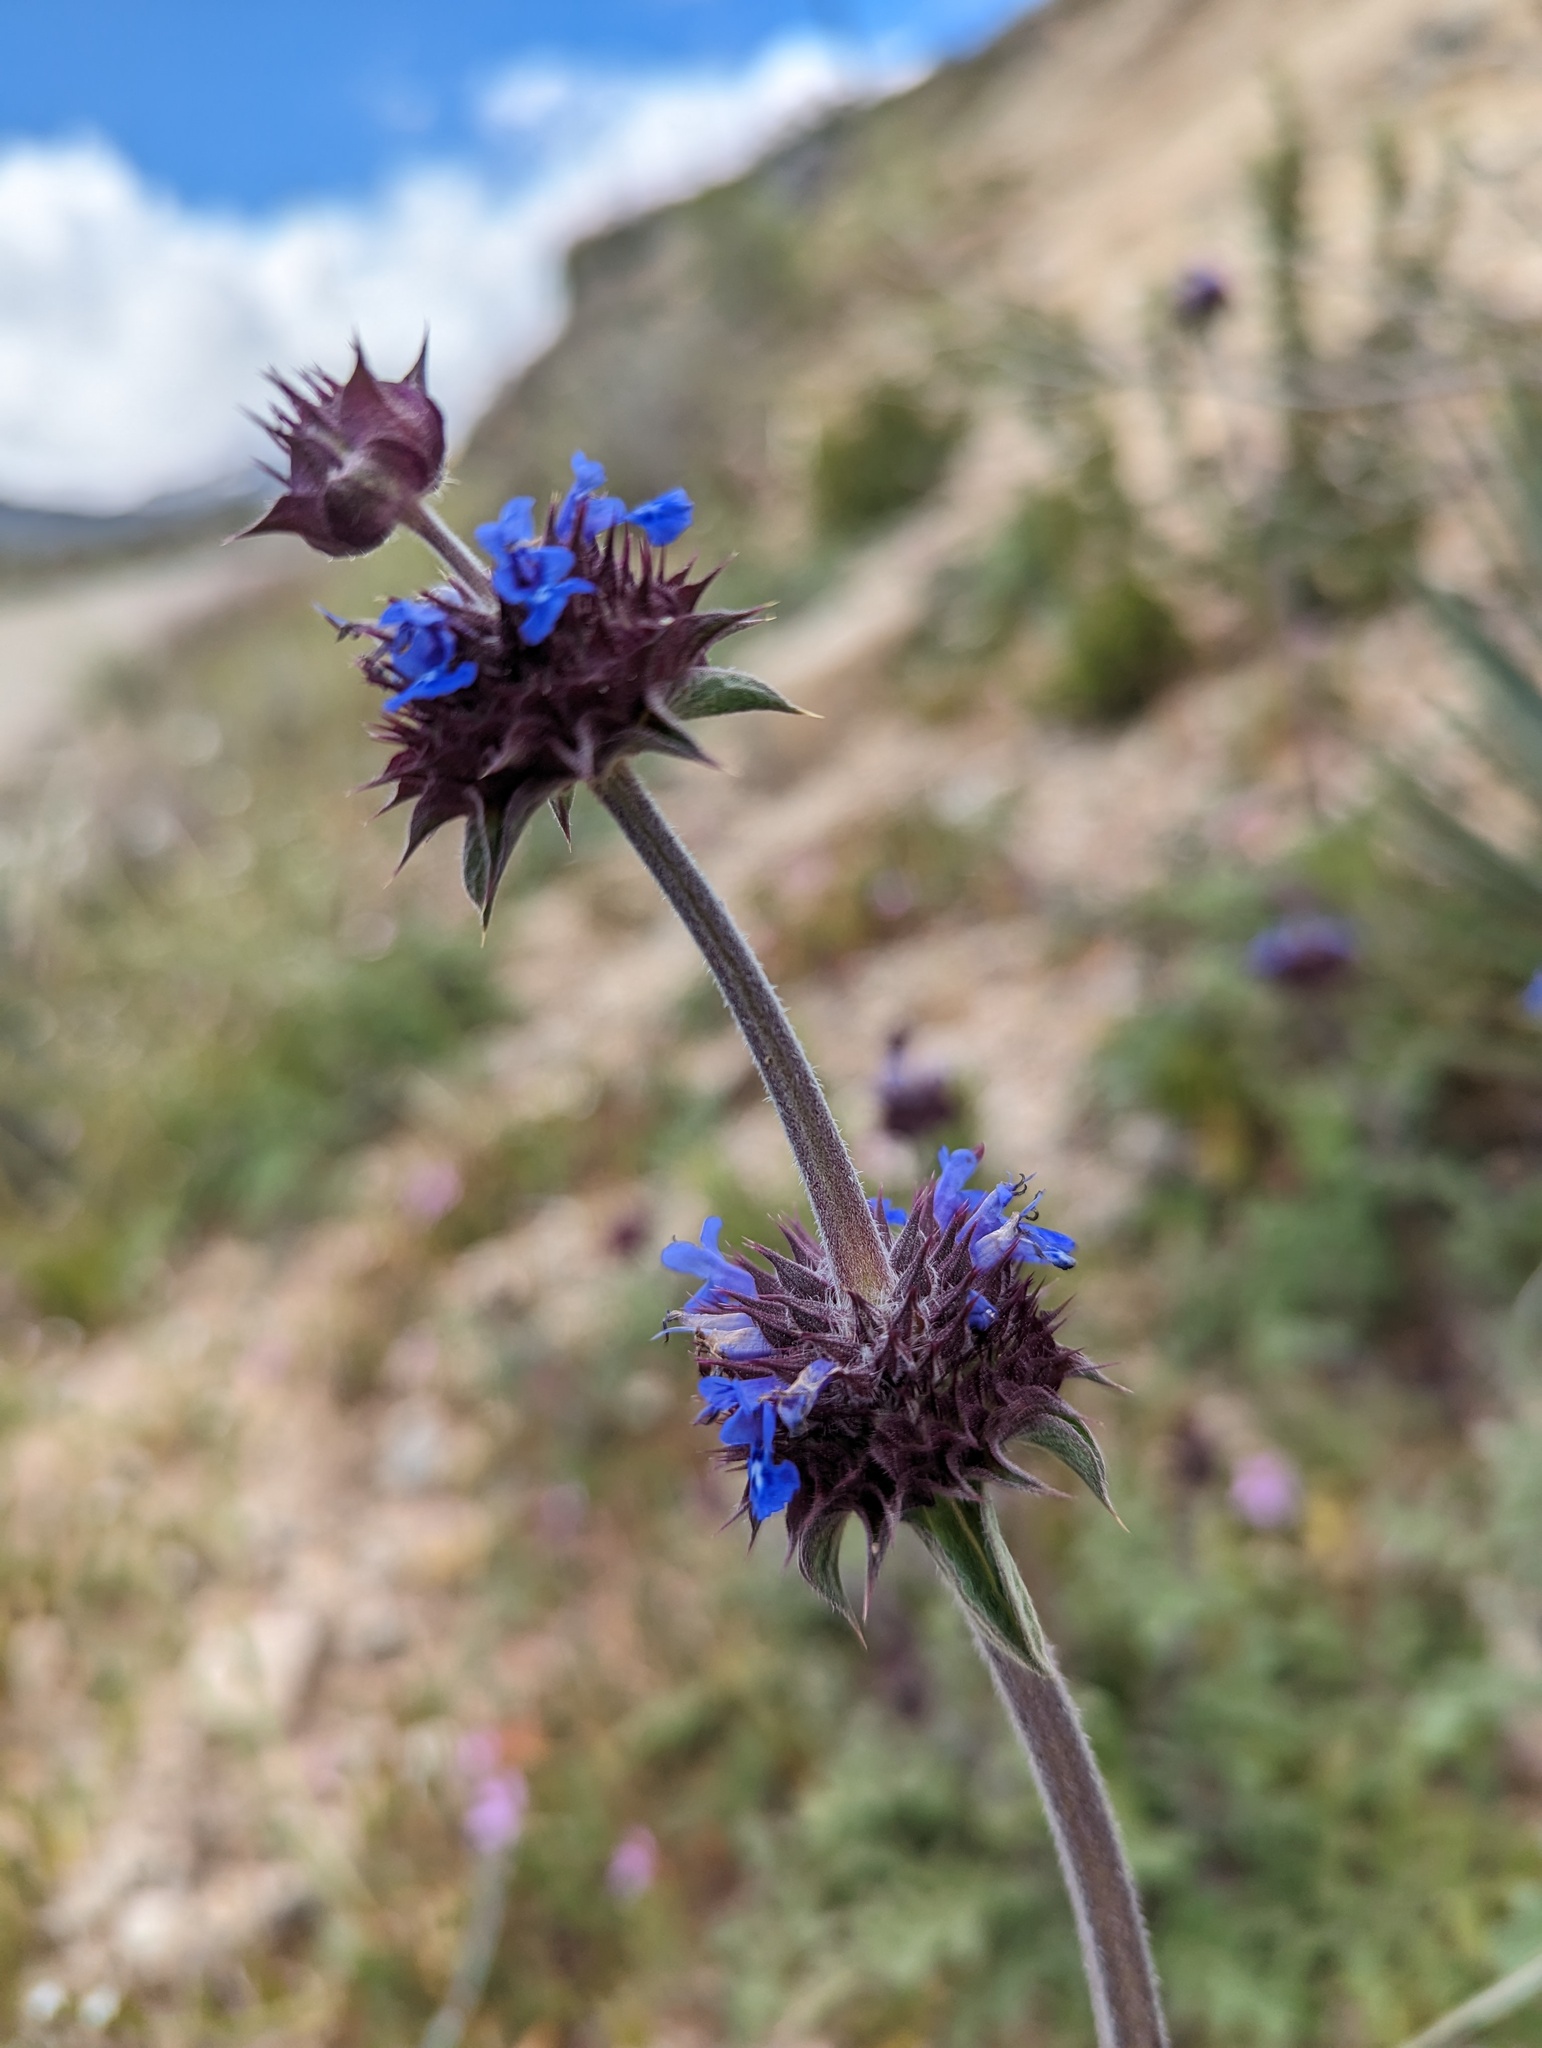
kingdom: Plantae
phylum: Tracheophyta
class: Magnoliopsida
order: Lamiales
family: Lamiaceae
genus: Salvia
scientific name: Salvia columbariae
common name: Chia
